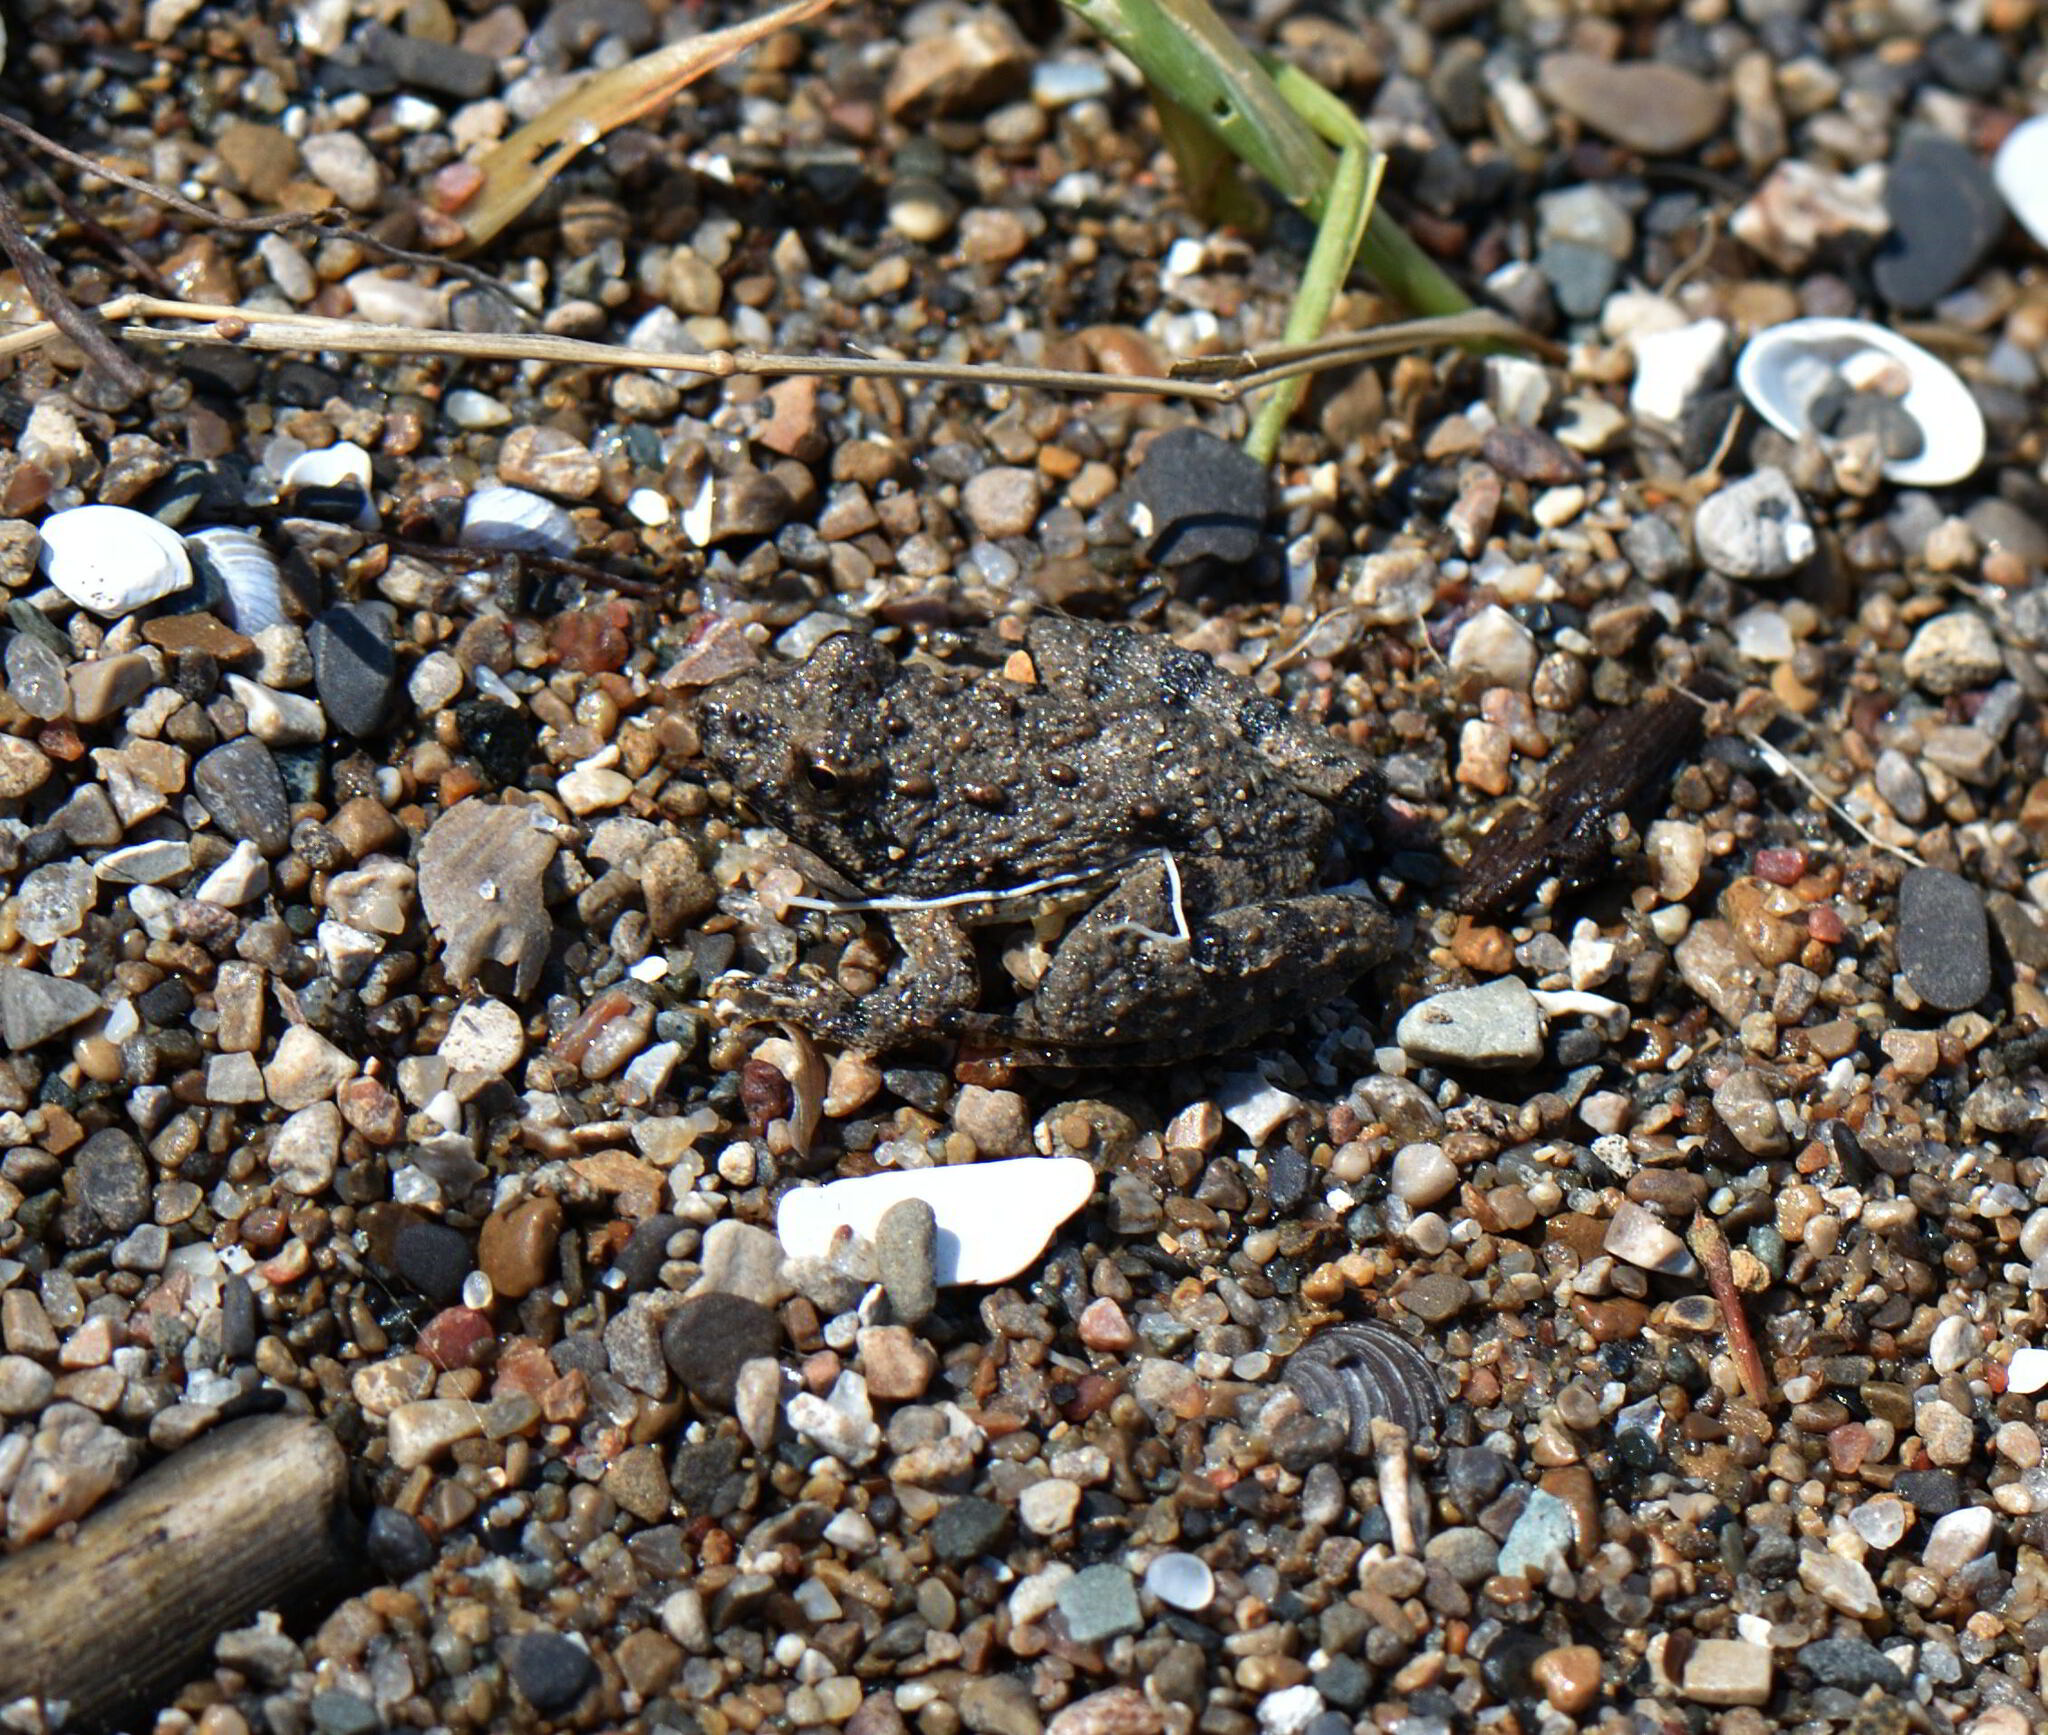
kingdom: Animalia
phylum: Chordata
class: Amphibia
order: Anura
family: Hylidae
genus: Acris
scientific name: Acris blanchardi
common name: Blanchard's cricket frog
